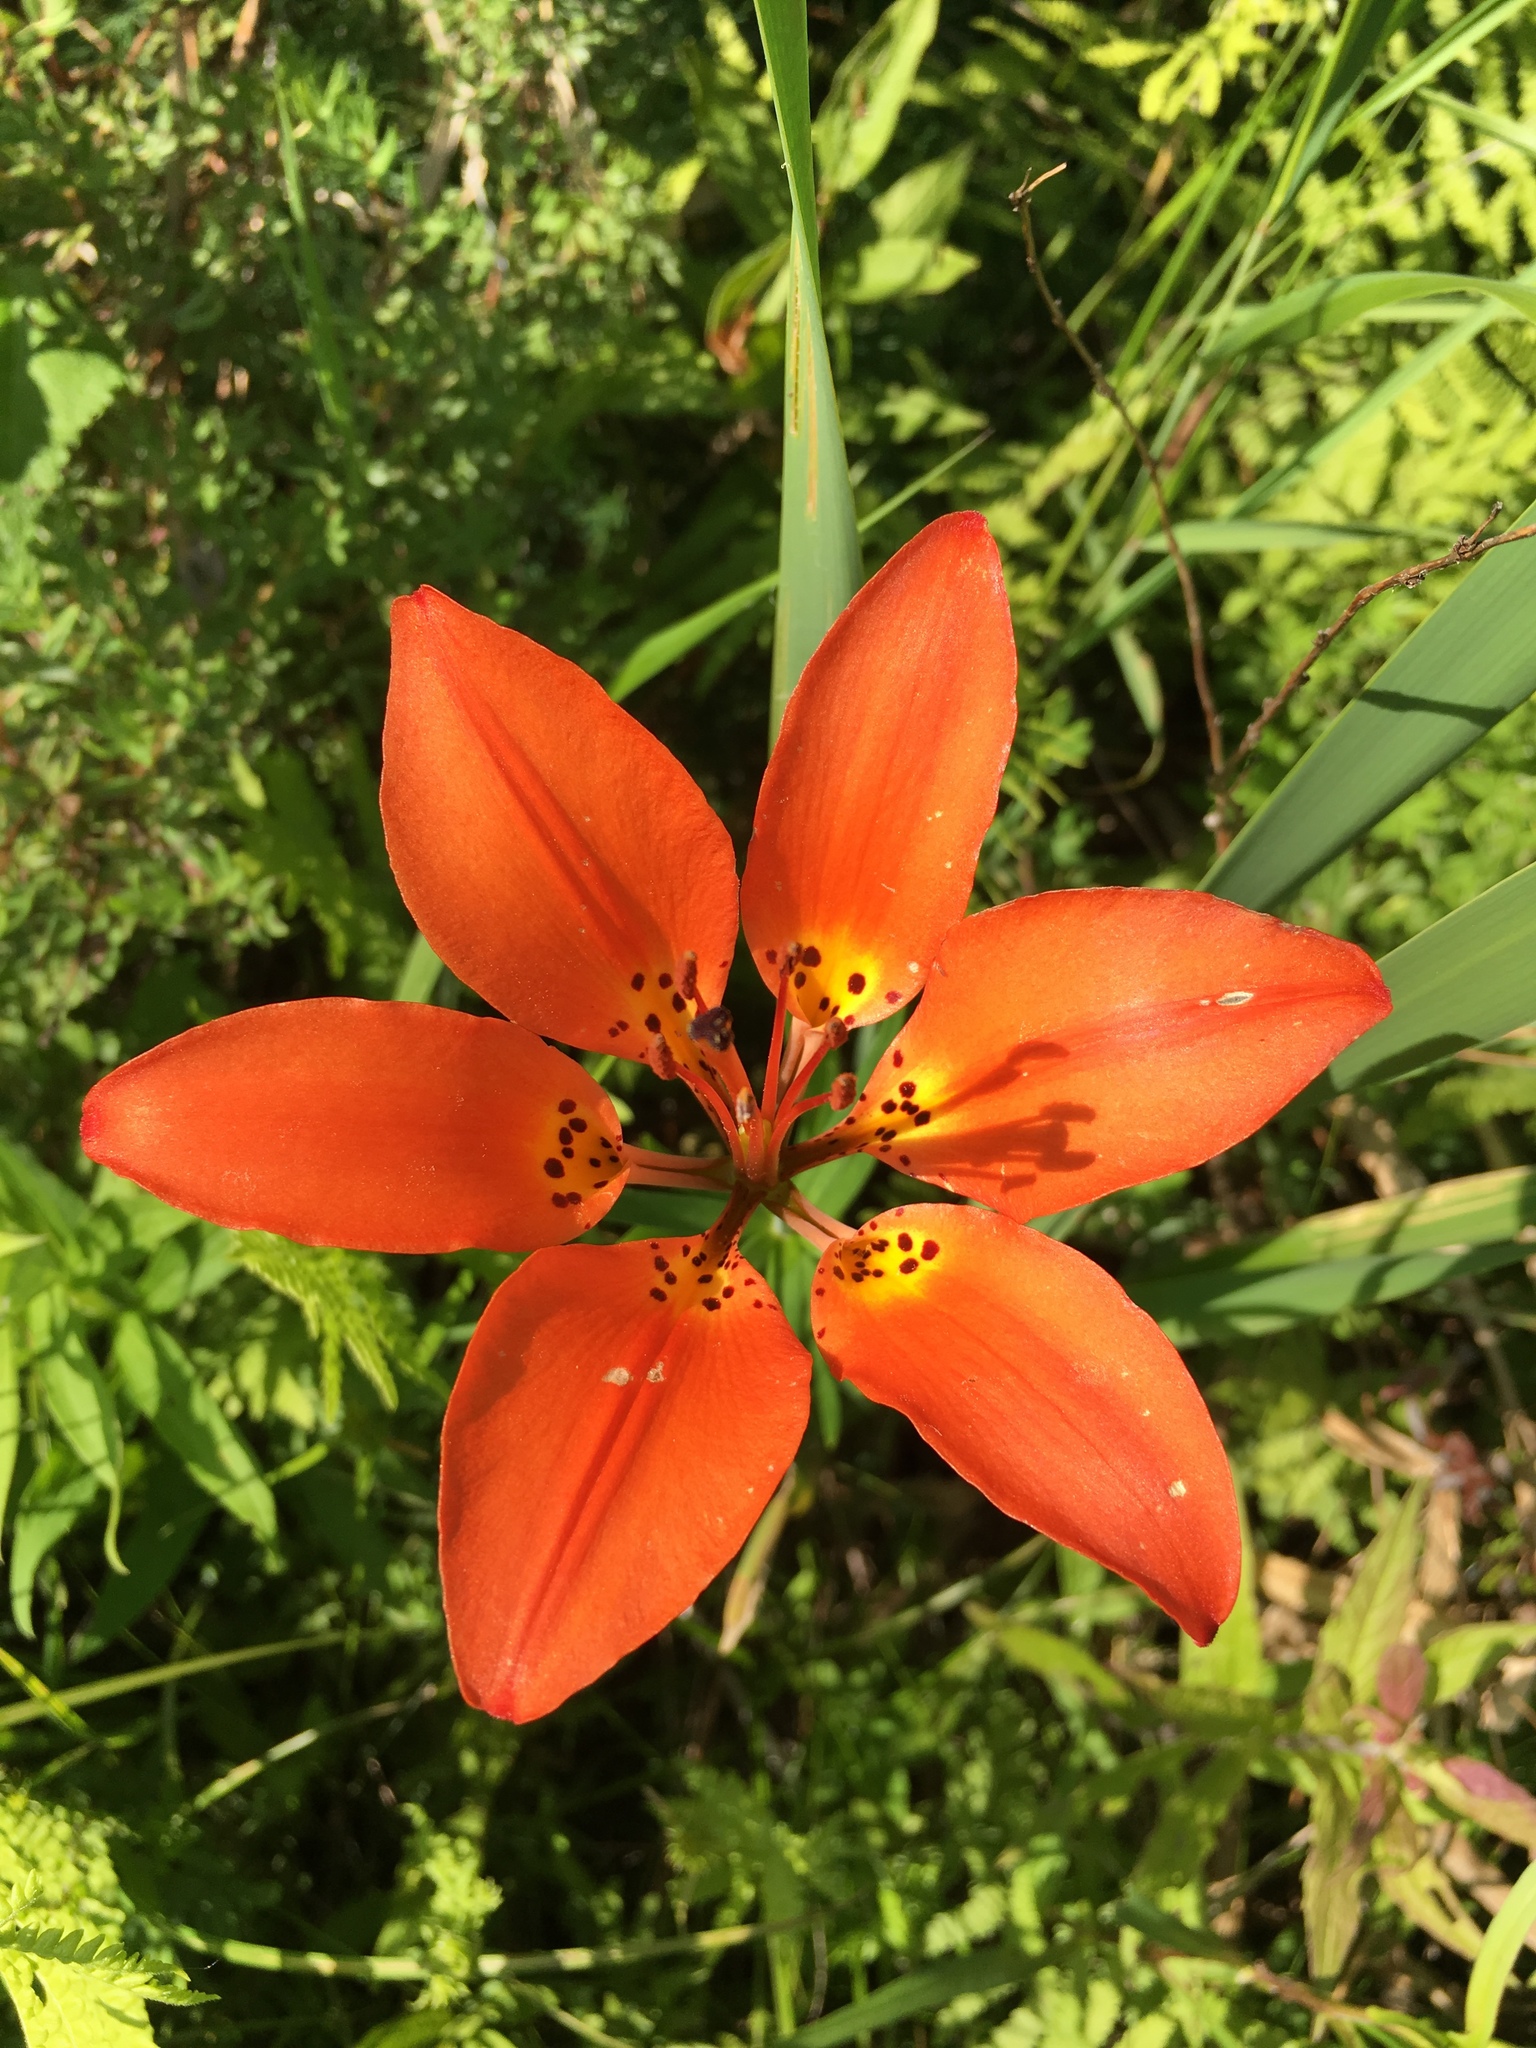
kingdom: Plantae
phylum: Tracheophyta
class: Liliopsida
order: Liliales
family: Liliaceae
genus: Lilium
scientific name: Lilium philadelphicum
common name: Red lily
